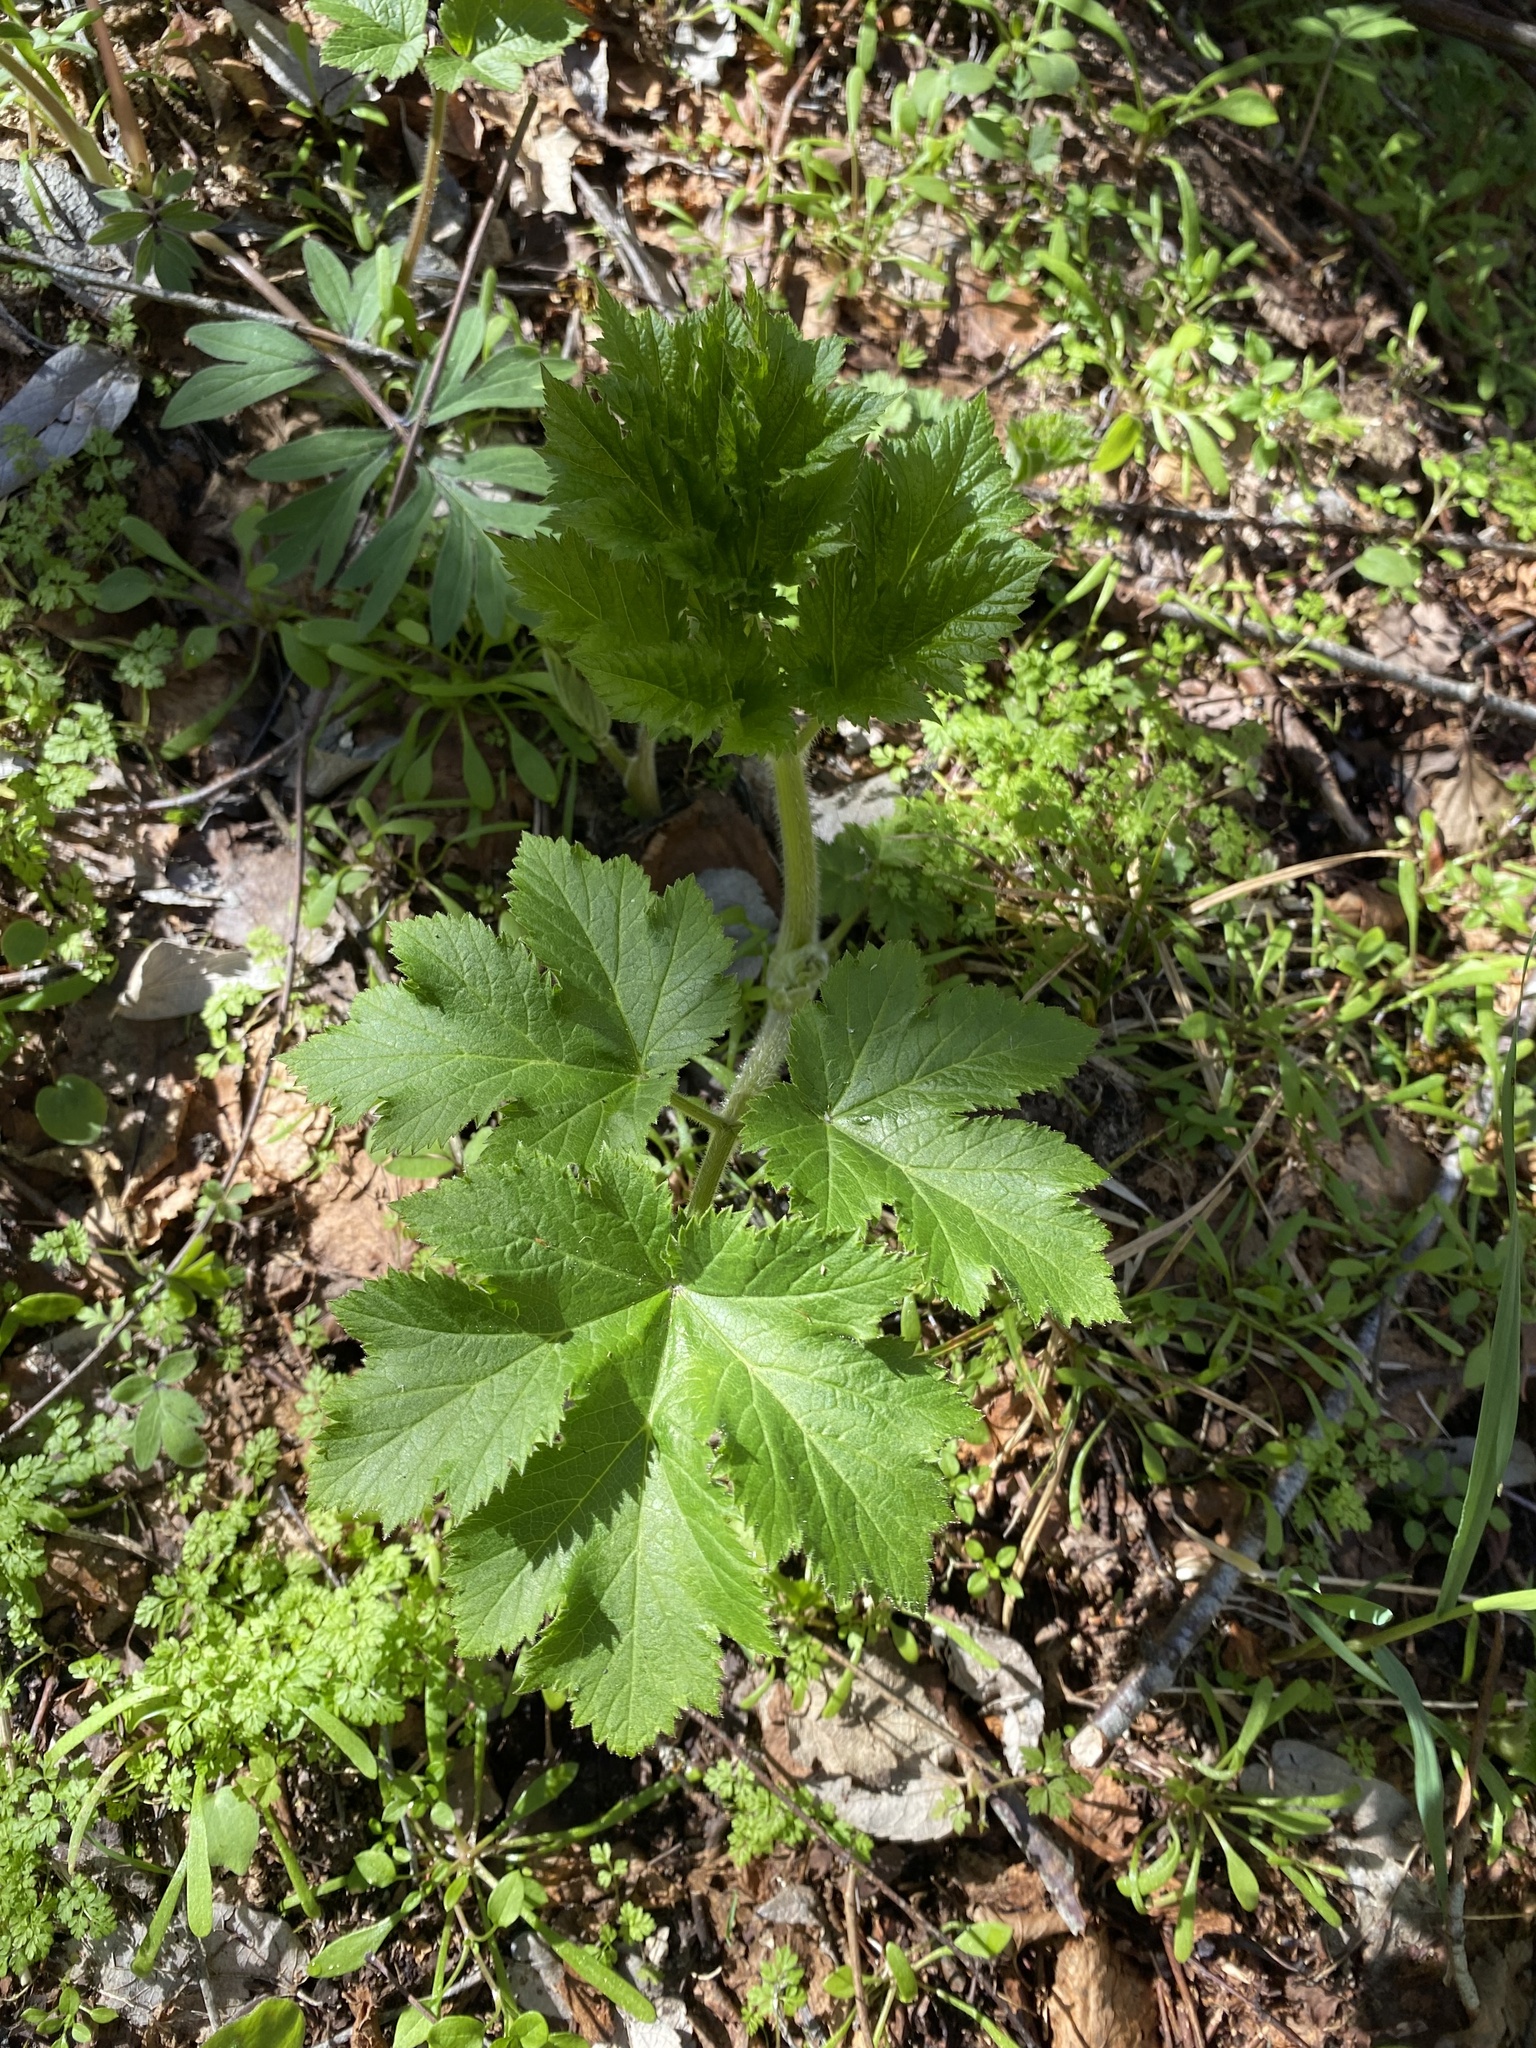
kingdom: Plantae
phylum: Tracheophyta
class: Magnoliopsida
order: Apiales
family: Apiaceae
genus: Heracleum
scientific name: Heracleum maximum
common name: American cow parsnip
